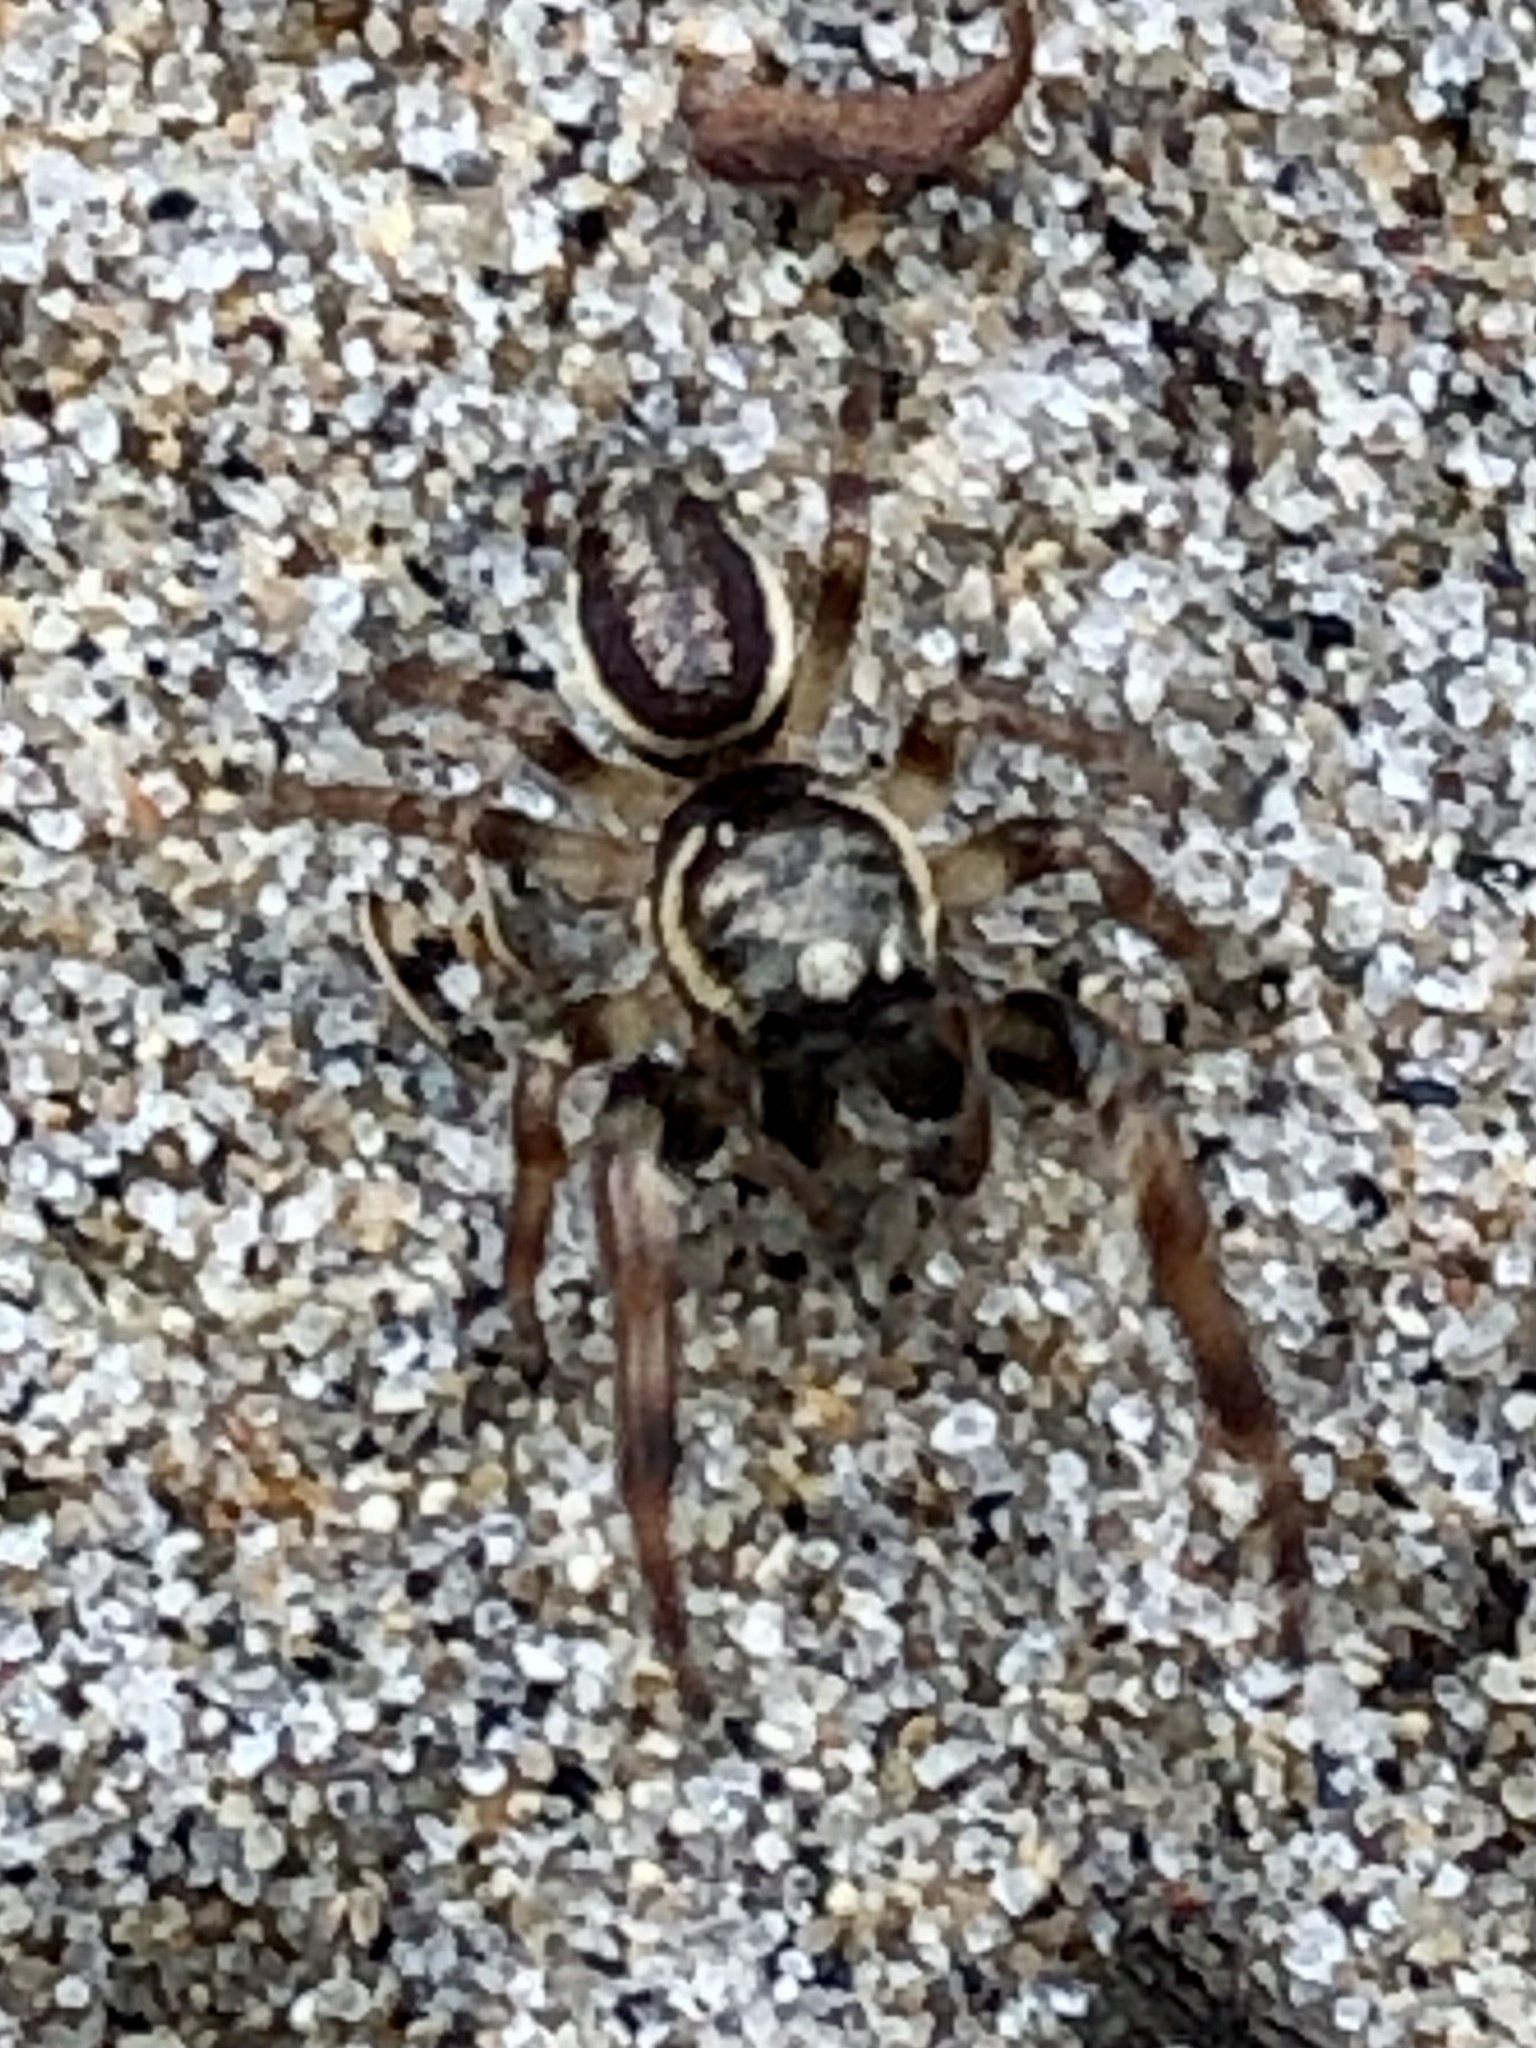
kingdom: Animalia
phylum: Arthropoda
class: Arachnida
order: Araneae
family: Salticidae
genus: Eris
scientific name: Eris militaris
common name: Bronze jumper
